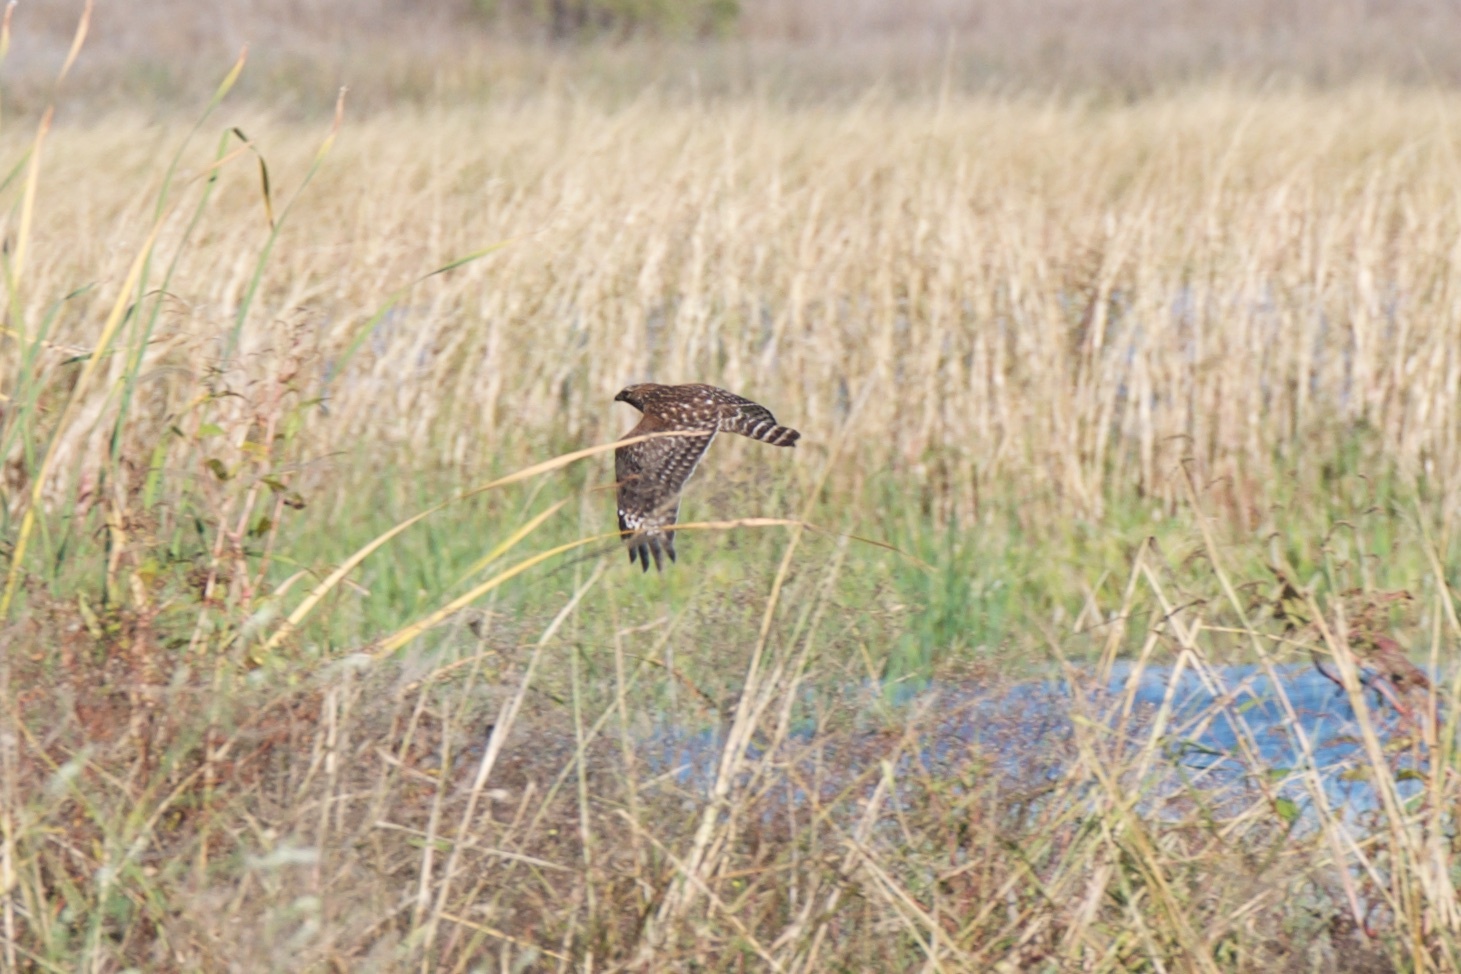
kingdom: Animalia
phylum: Chordata
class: Aves
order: Accipitriformes
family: Accipitridae
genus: Buteo
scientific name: Buteo lineatus
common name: Red-shouldered hawk
